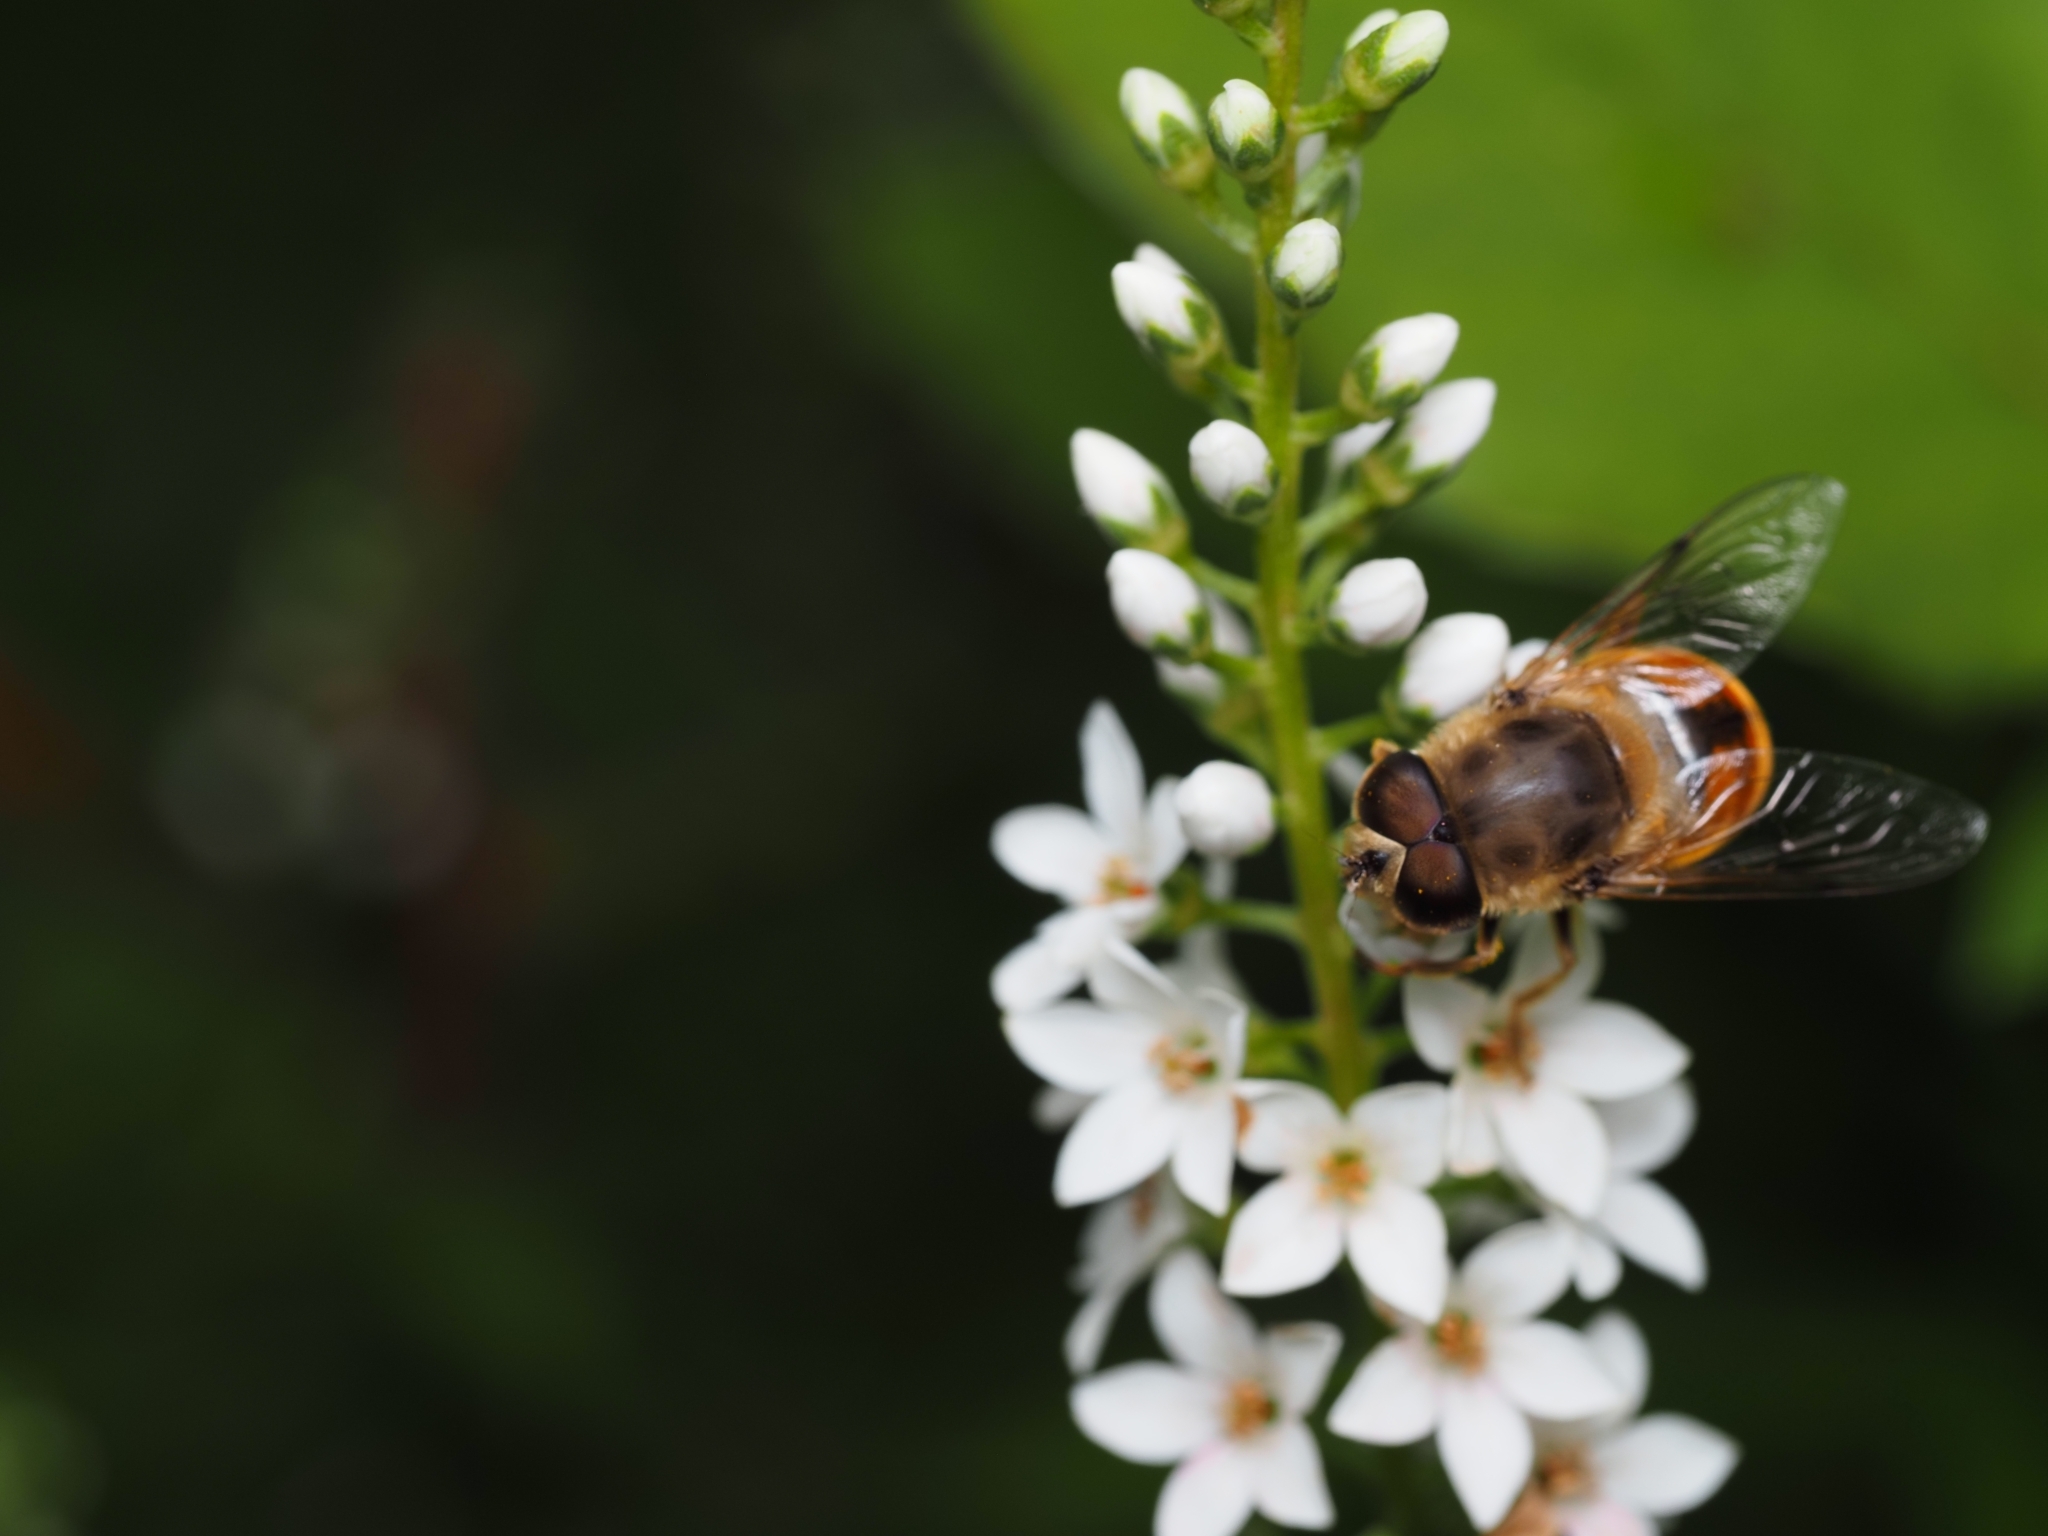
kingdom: Animalia
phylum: Arthropoda
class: Insecta
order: Diptera
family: Syrphidae
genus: Eristalis
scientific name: Eristalis tenax
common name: Drone fly
